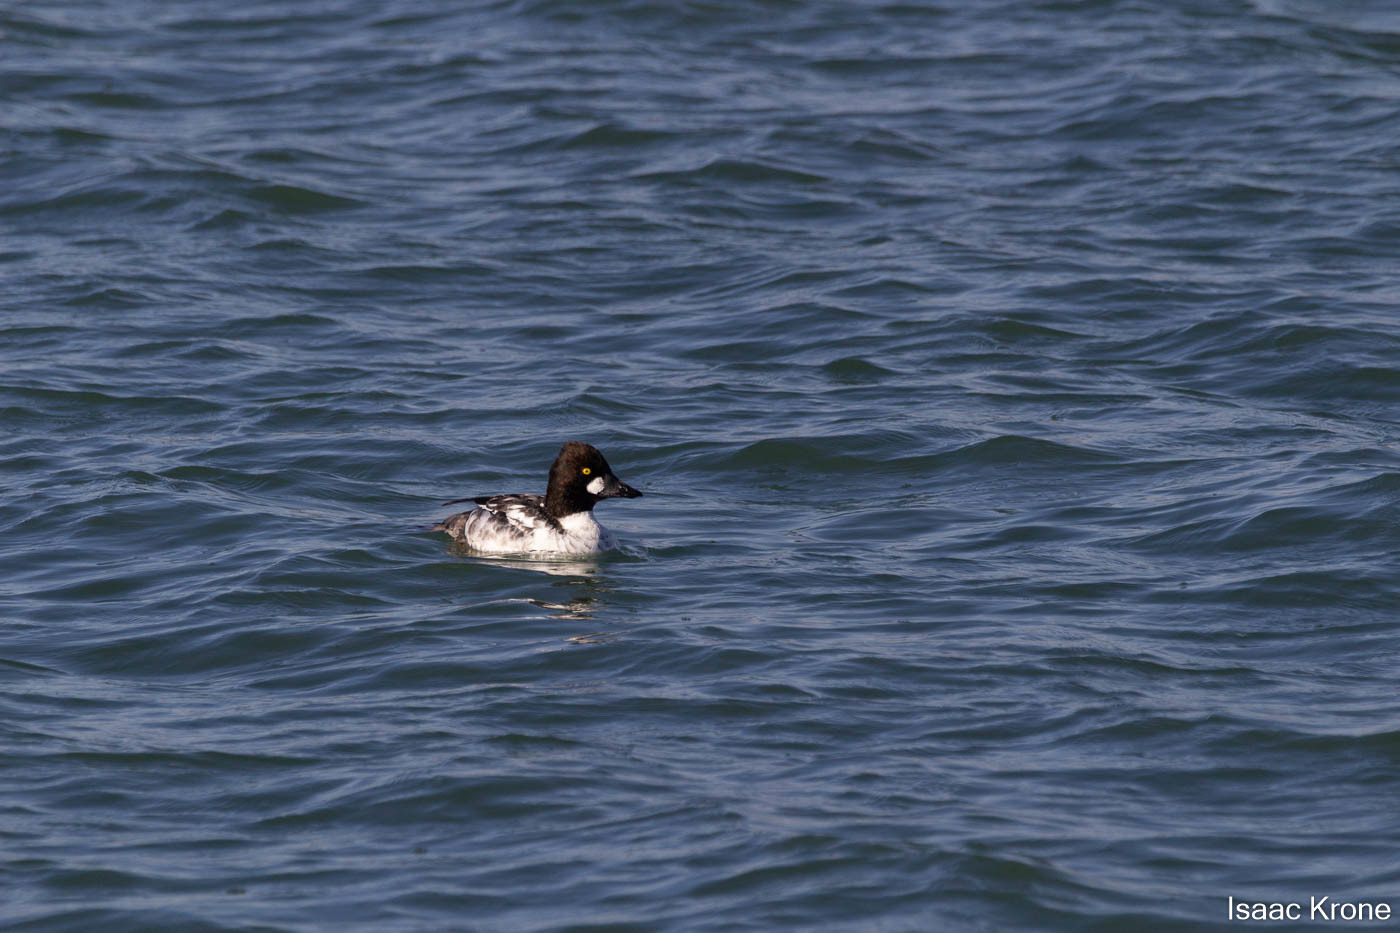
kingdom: Animalia
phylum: Chordata
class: Aves
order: Anseriformes
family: Anatidae
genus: Bucephala
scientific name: Bucephala clangula
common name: Common goldeneye
